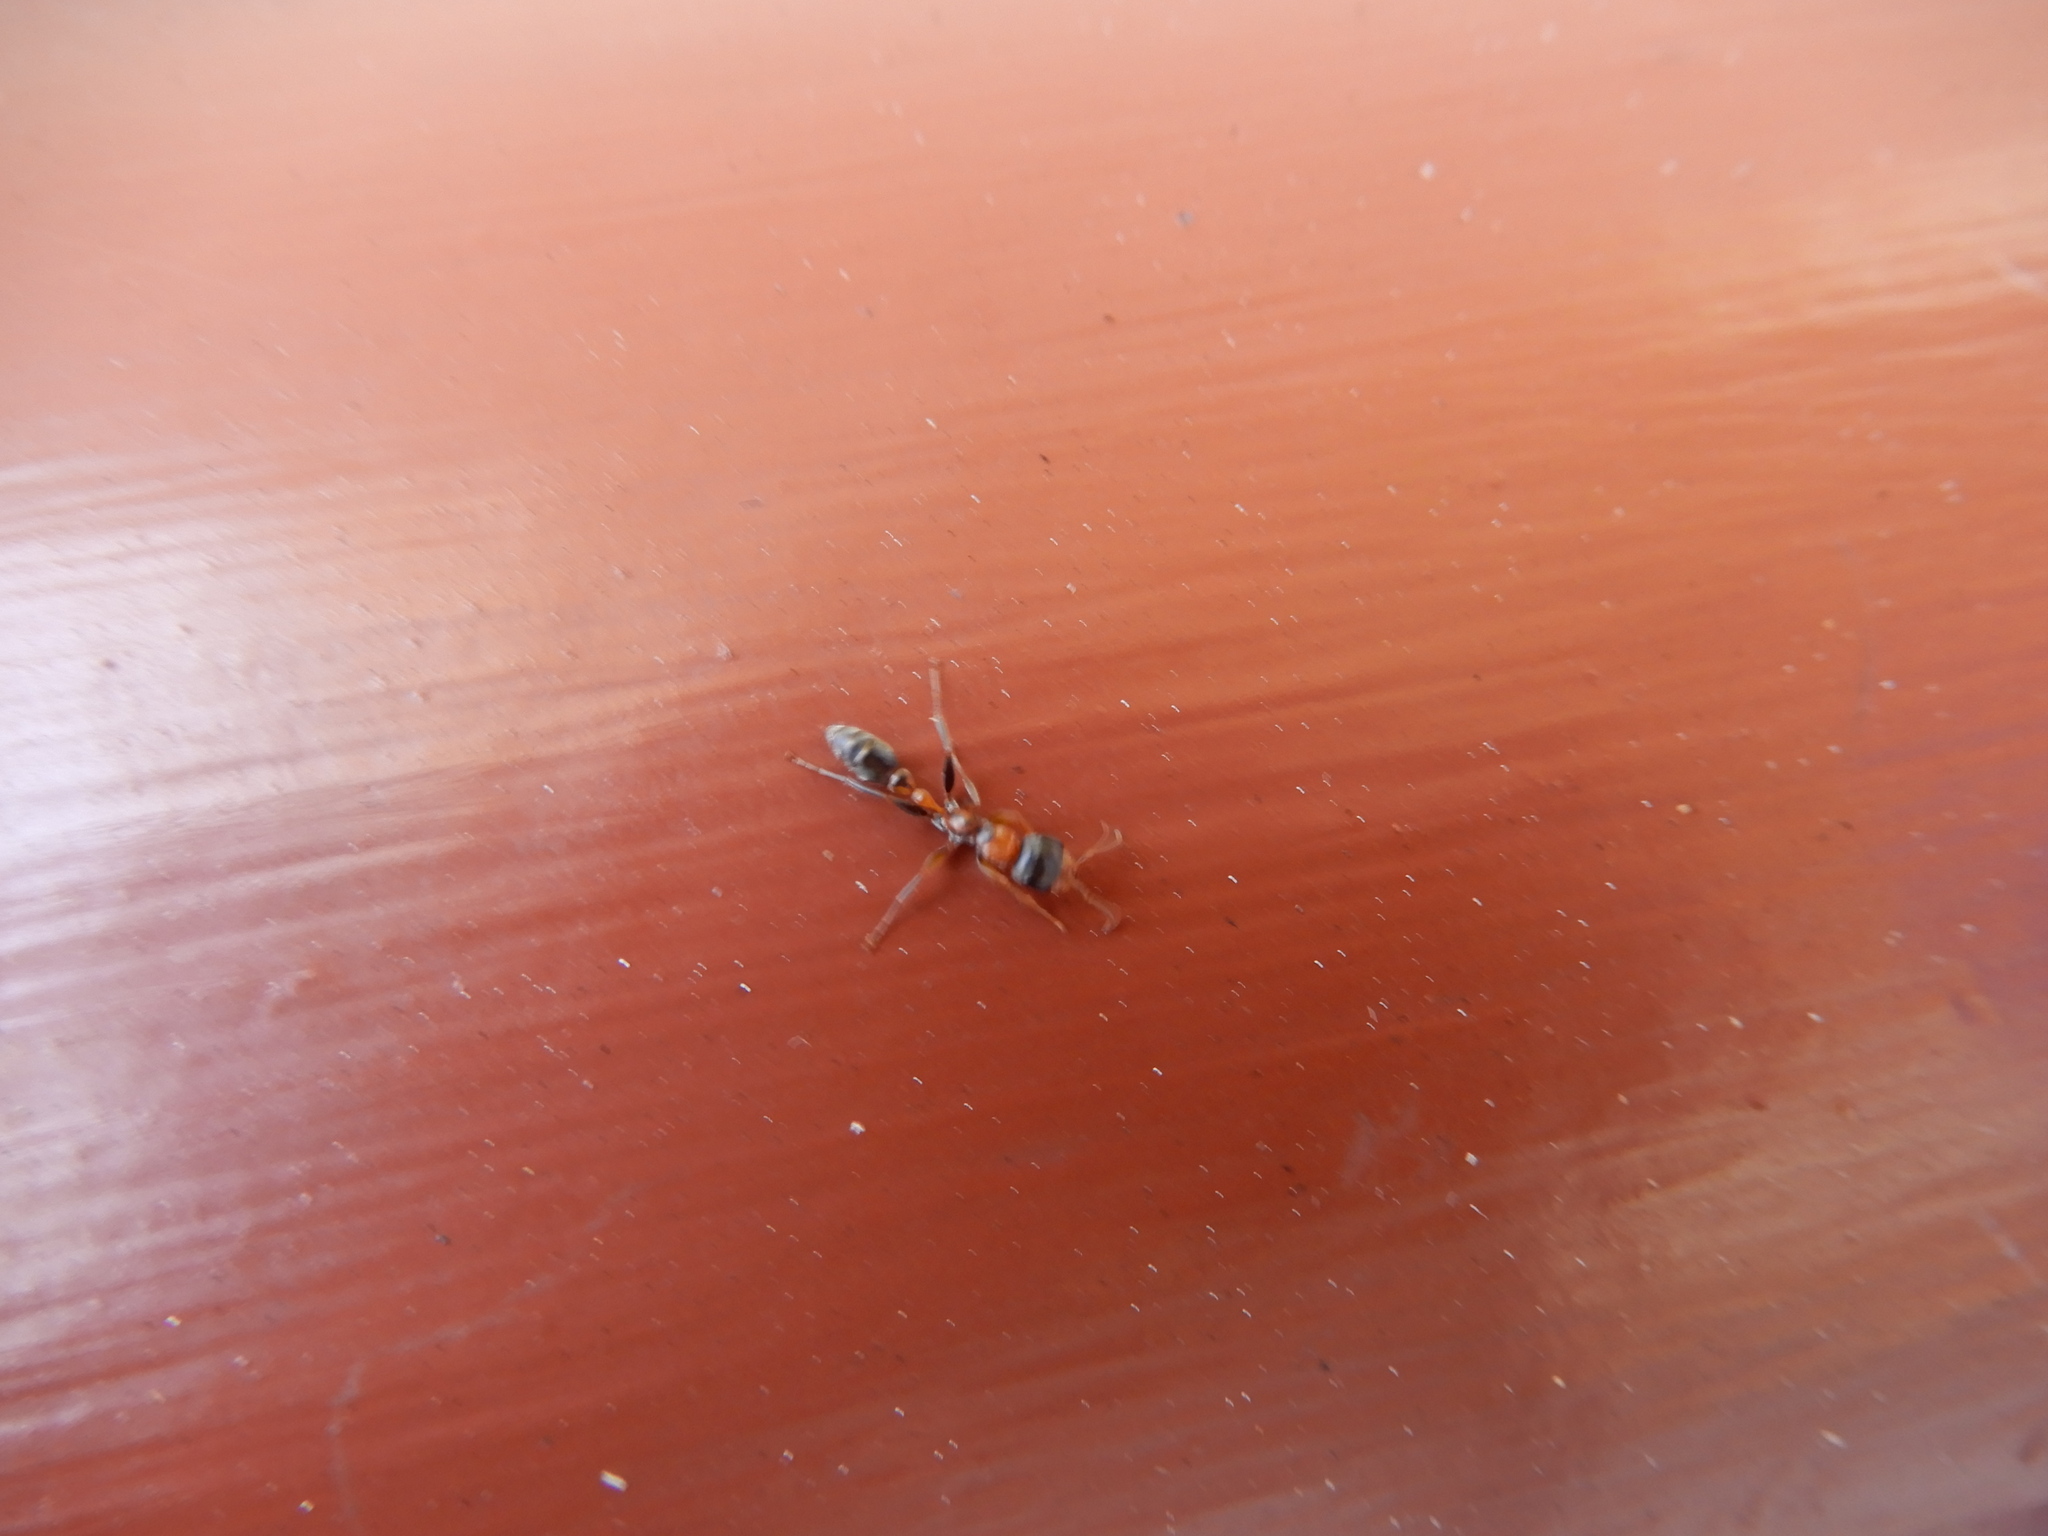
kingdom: Animalia
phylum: Arthropoda
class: Insecta
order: Hymenoptera
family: Formicidae
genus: Pseudomyrmex
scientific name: Pseudomyrmex gracilis
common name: Graceful twig ant
